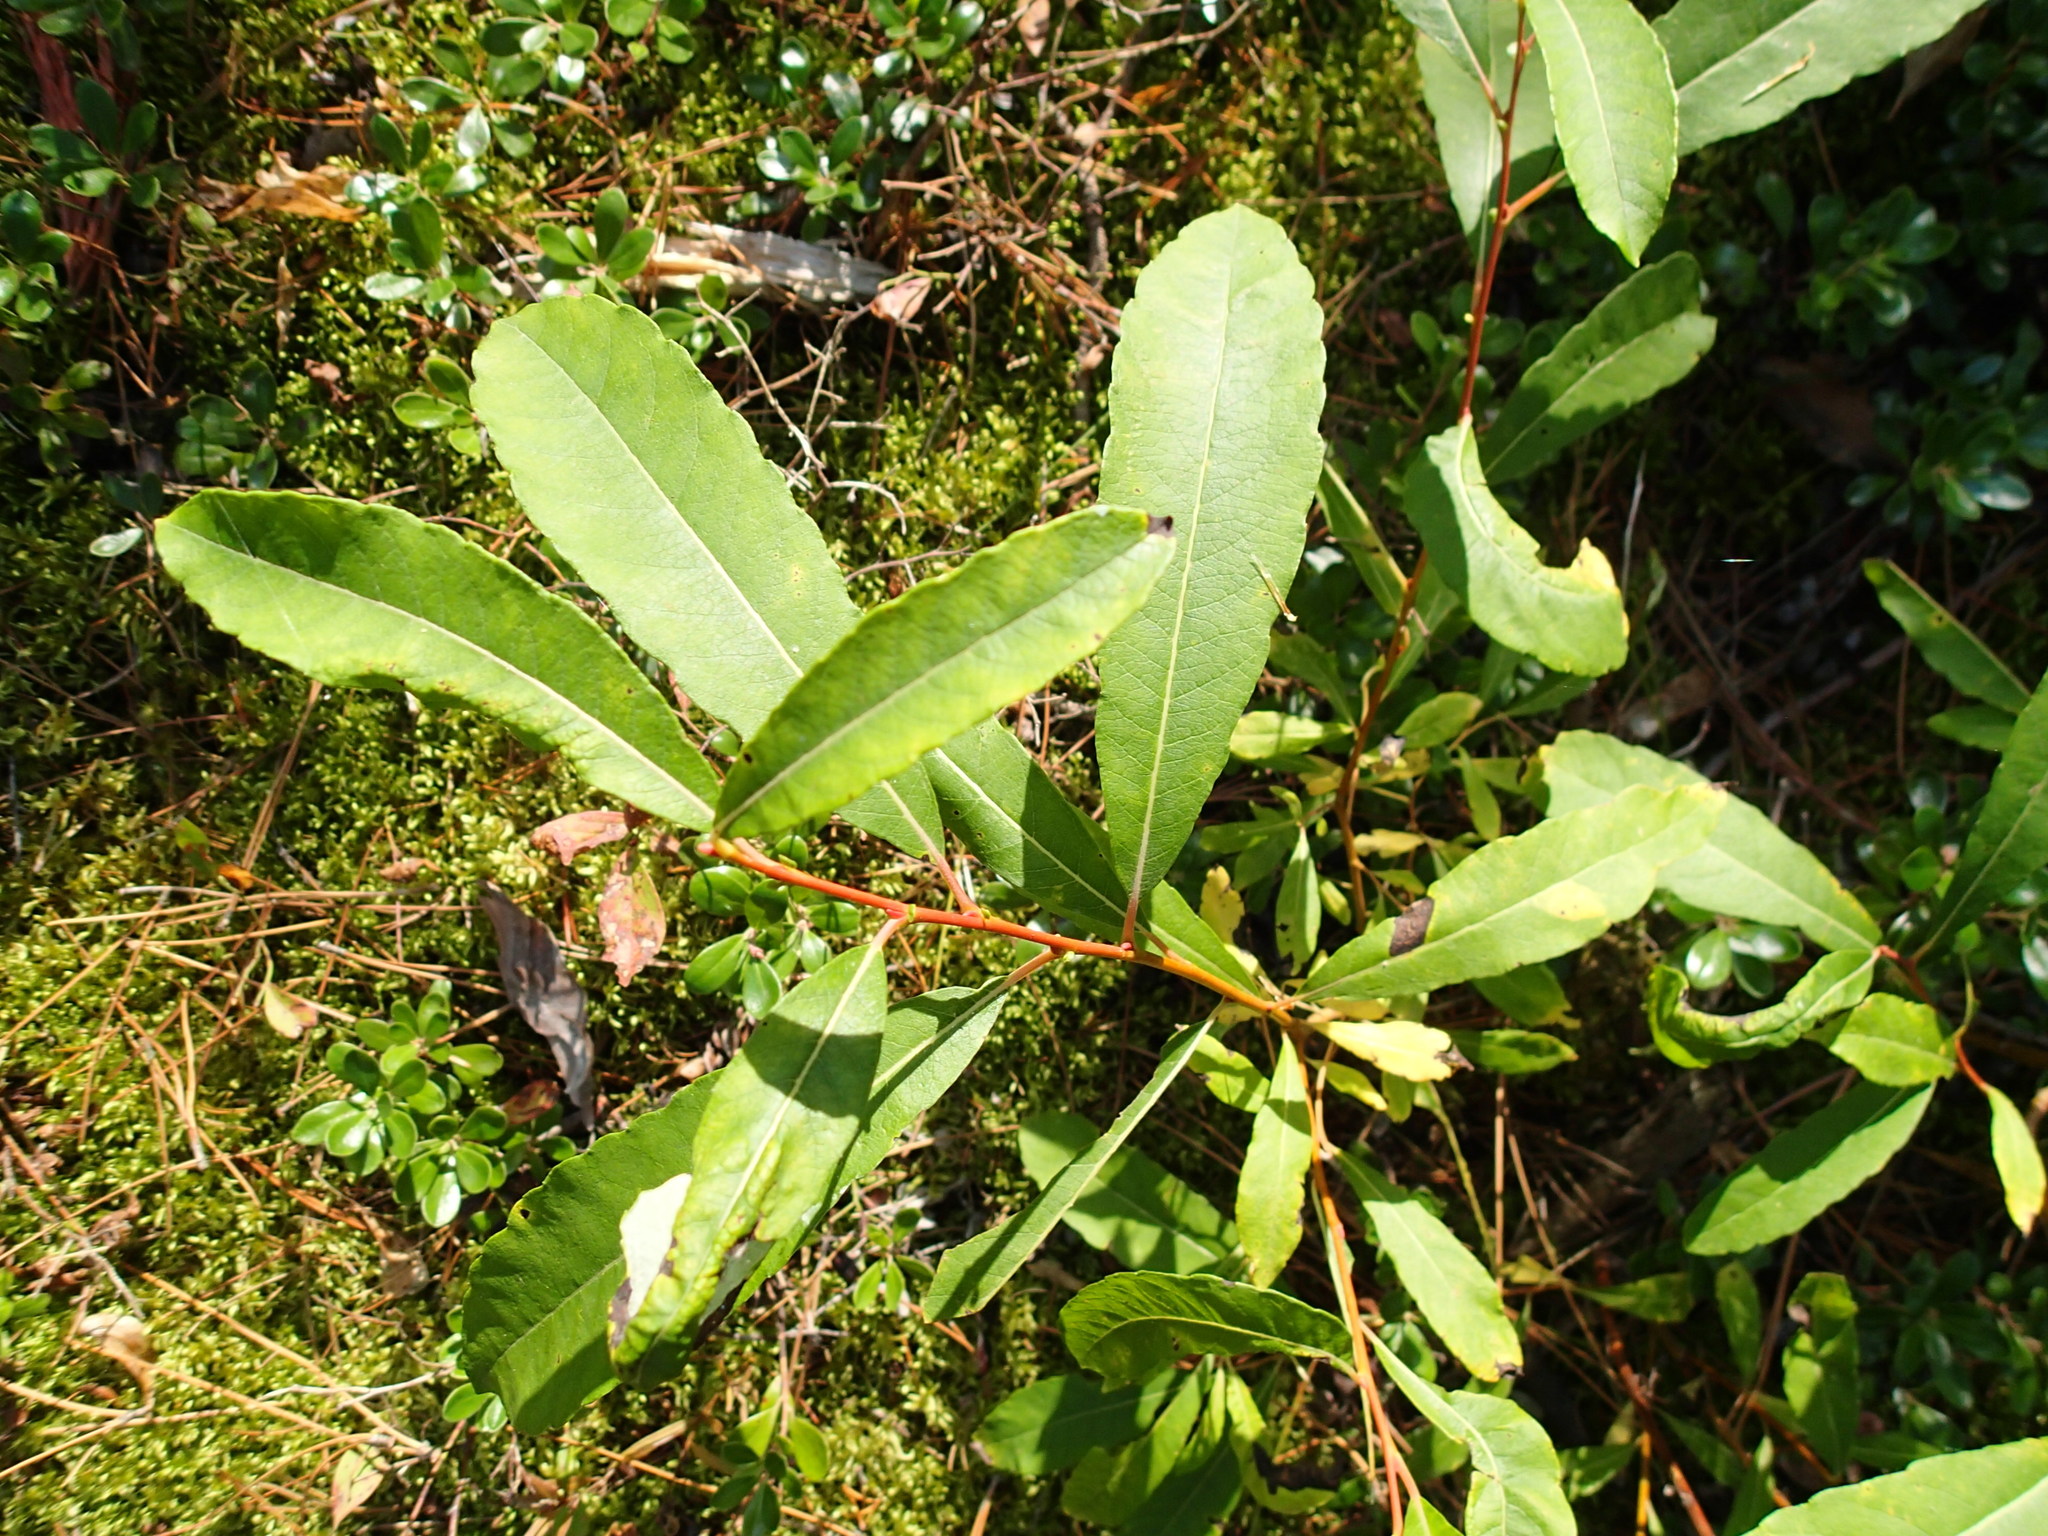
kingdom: Plantae
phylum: Tracheophyta
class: Magnoliopsida
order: Malpighiales
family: Salicaceae
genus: Salix
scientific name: Salix humilis
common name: Prairie willow
